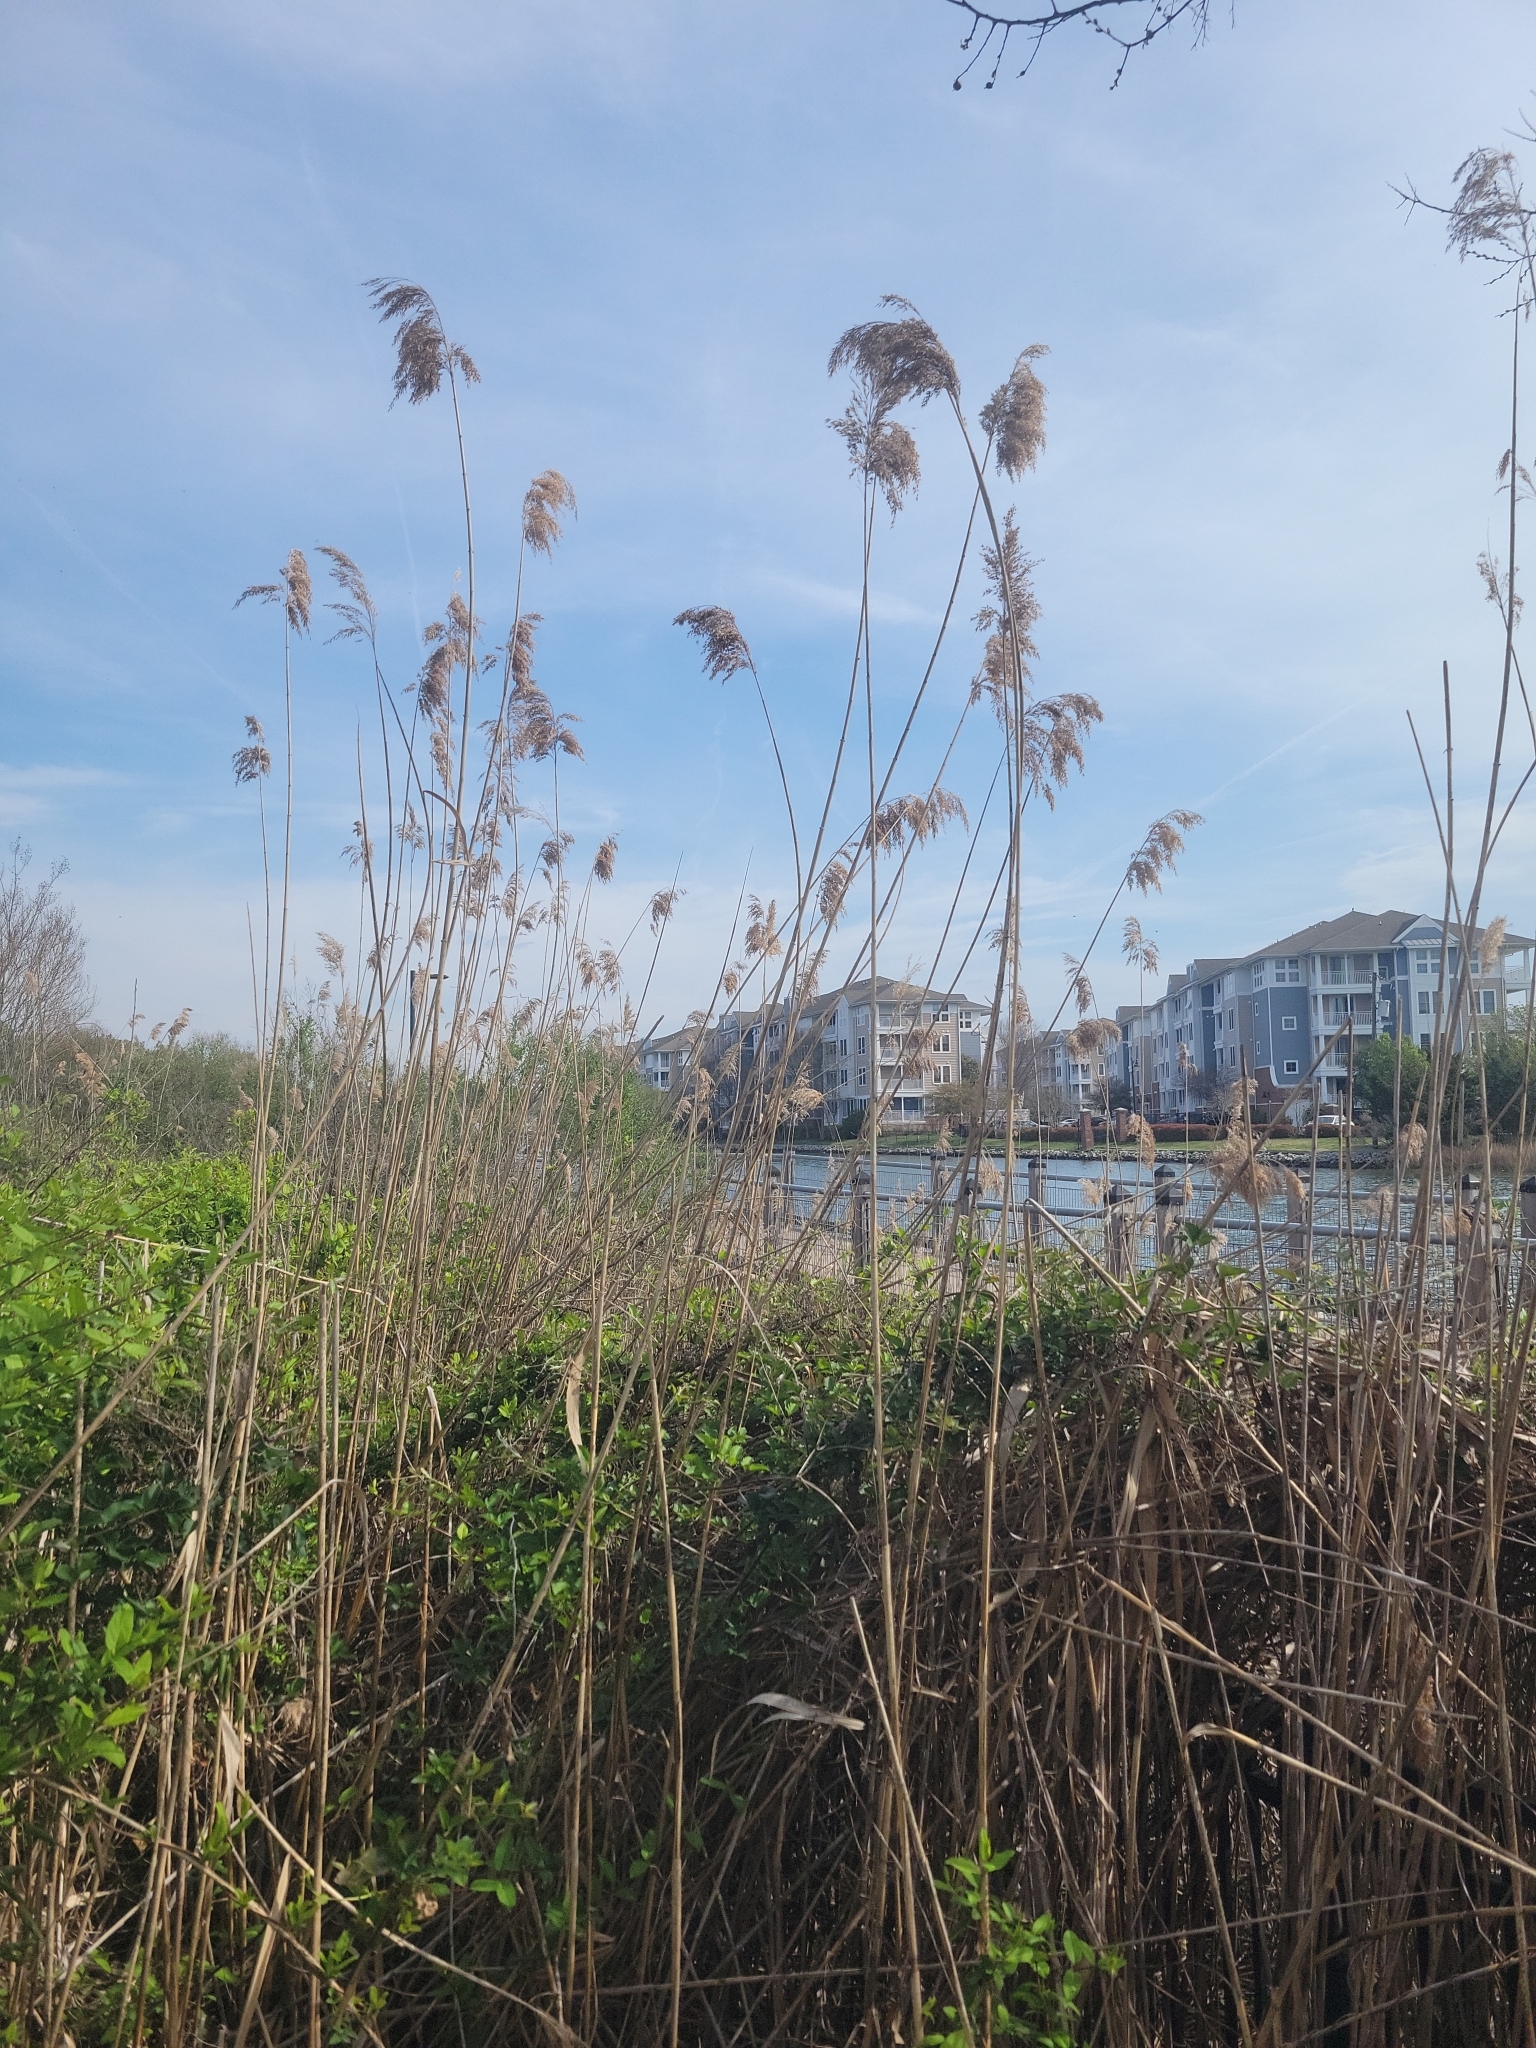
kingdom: Plantae
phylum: Tracheophyta
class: Liliopsida
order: Poales
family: Poaceae
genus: Phragmites
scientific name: Phragmites australis
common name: Common reed
